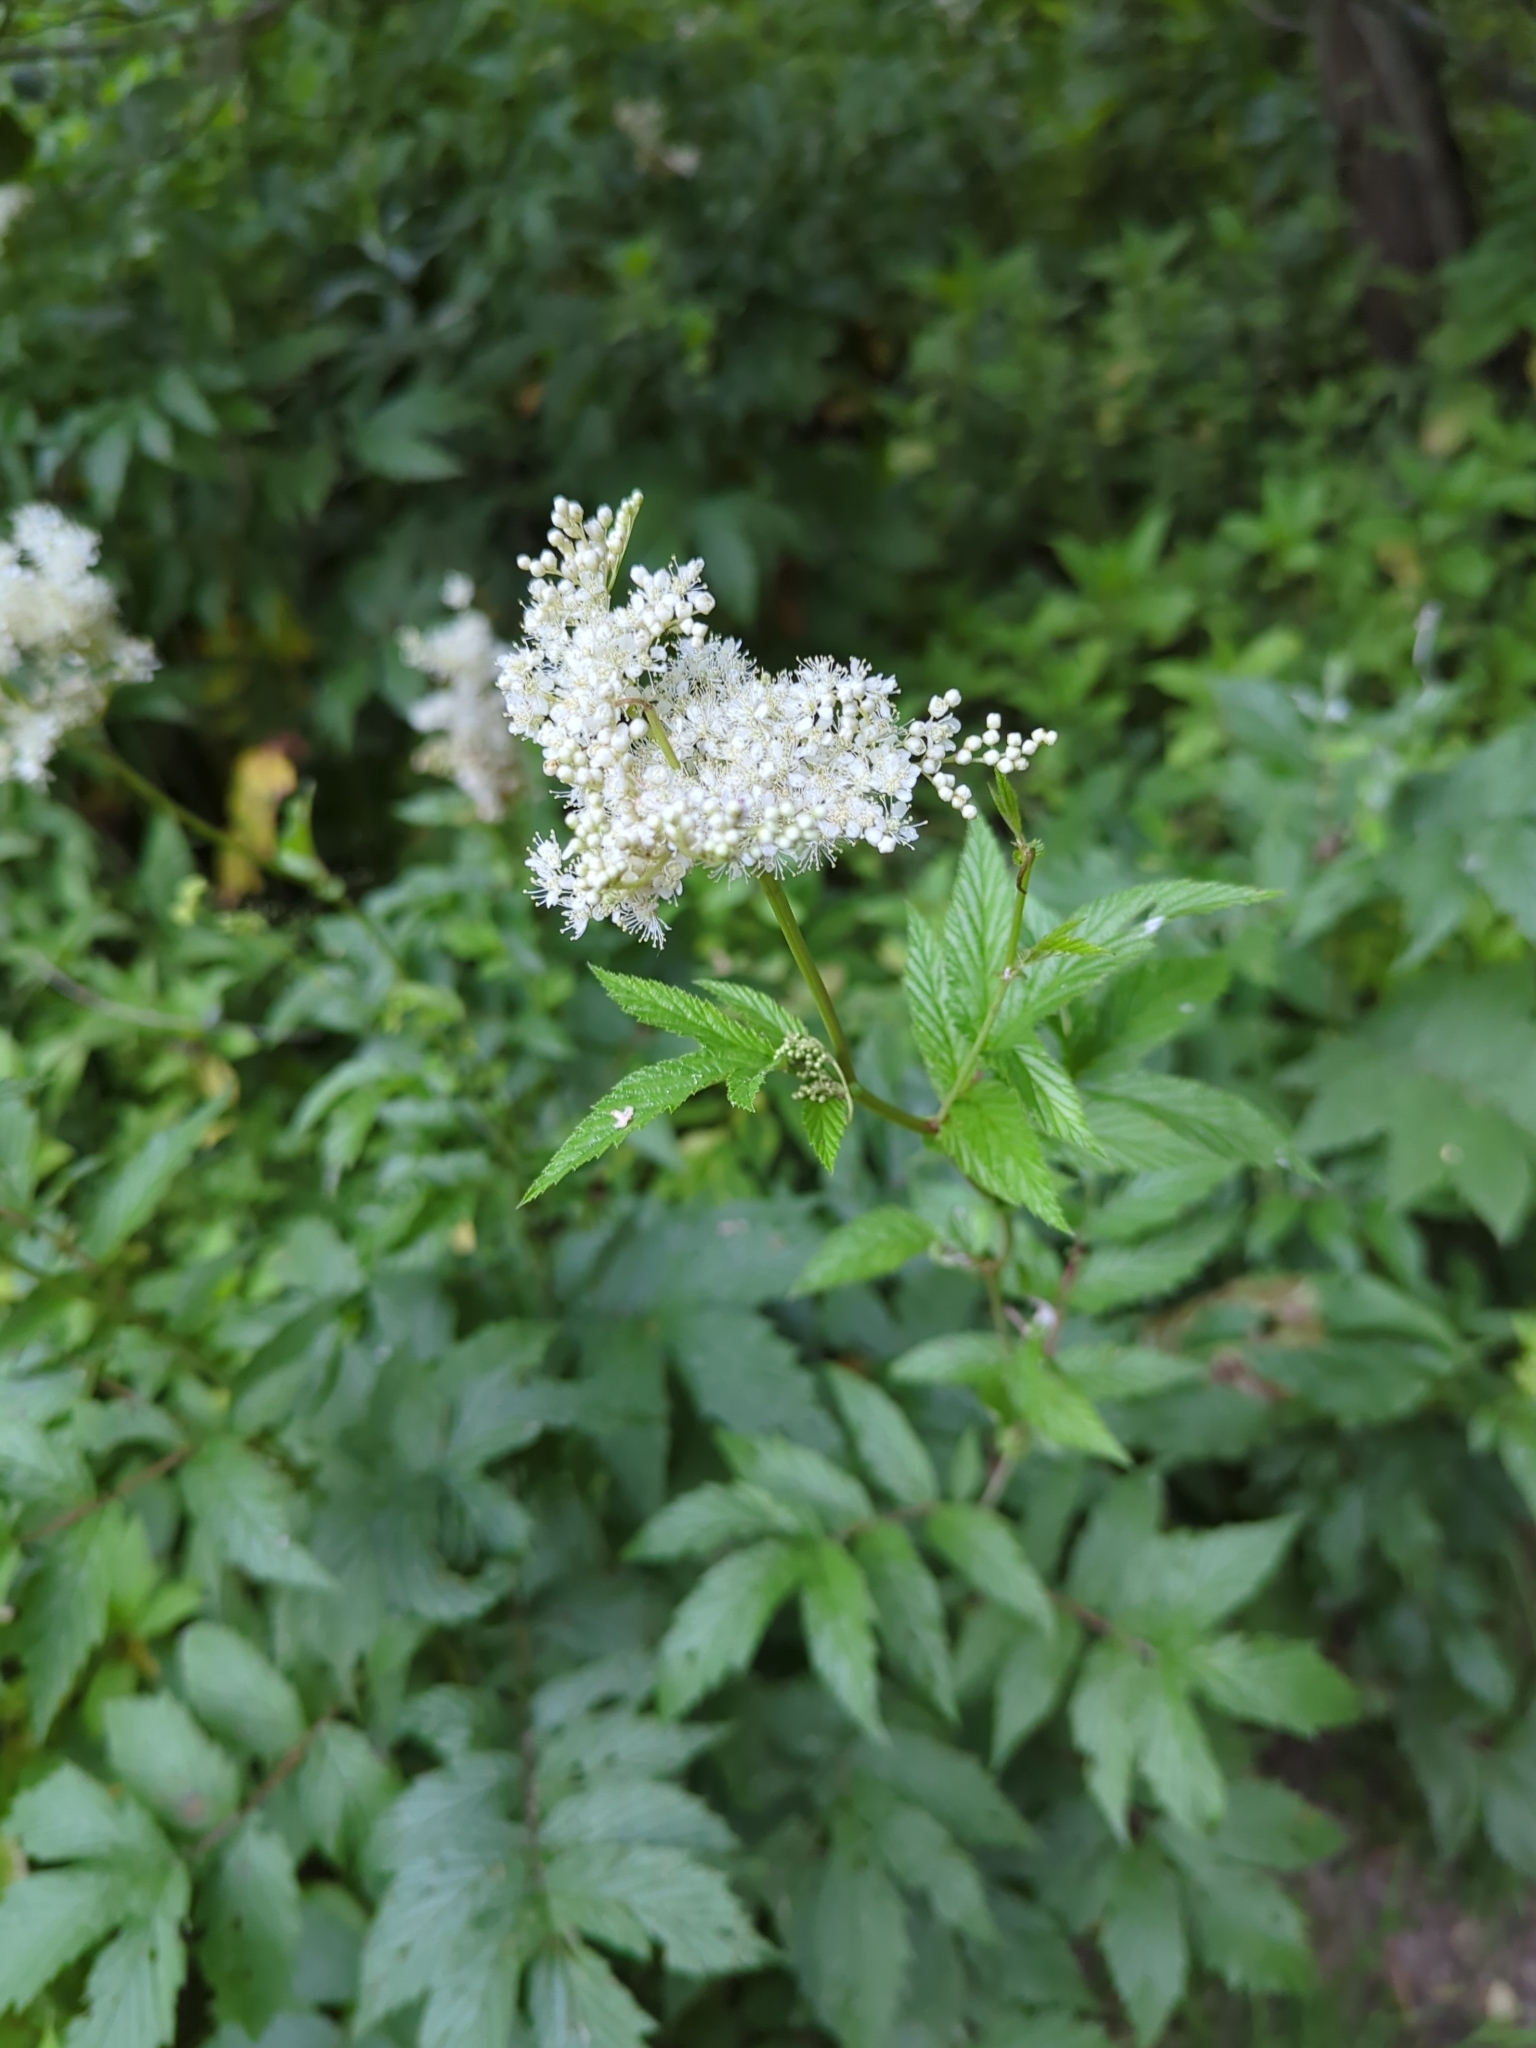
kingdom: Plantae
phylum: Tracheophyta
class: Magnoliopsida
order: Rosales
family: Rosaceae
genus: Filipendula
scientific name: Filipendula ulmaria
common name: Meadowsweet
